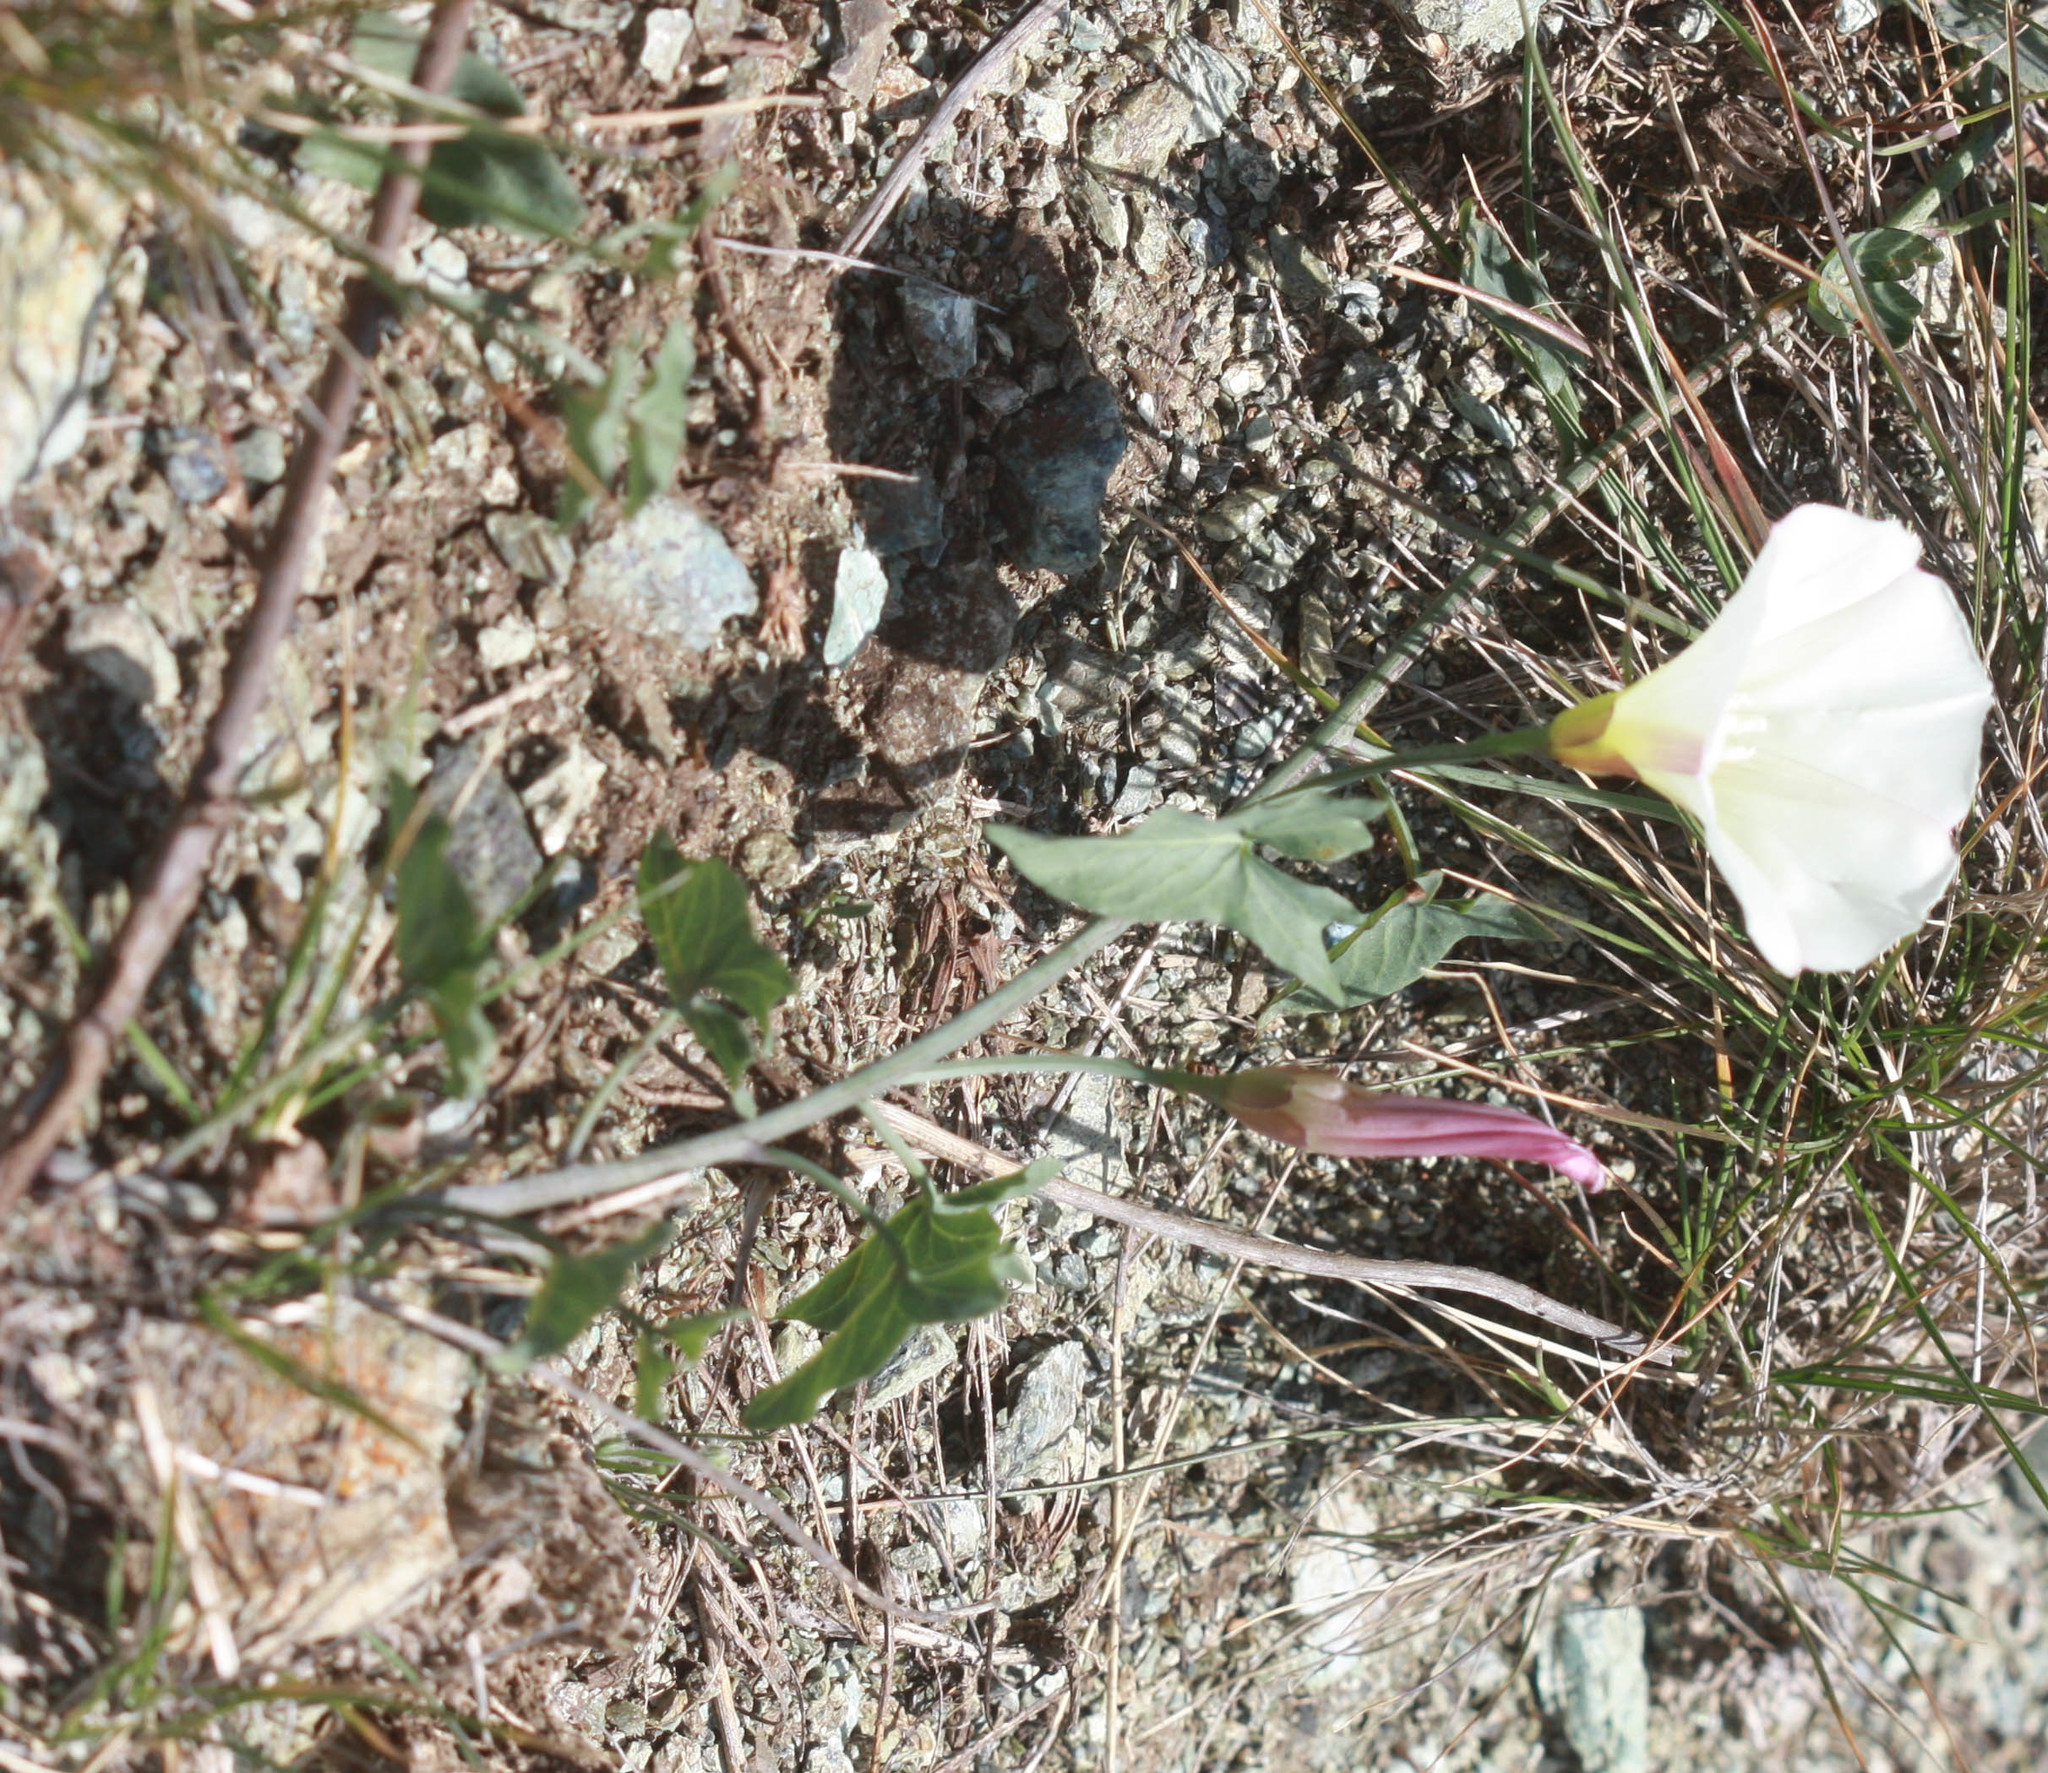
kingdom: Plantae
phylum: Tracheophyta
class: Magnoliopsida
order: Solanales
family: Convolvulaceae
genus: Calystegia
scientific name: Calystegia purpurata
